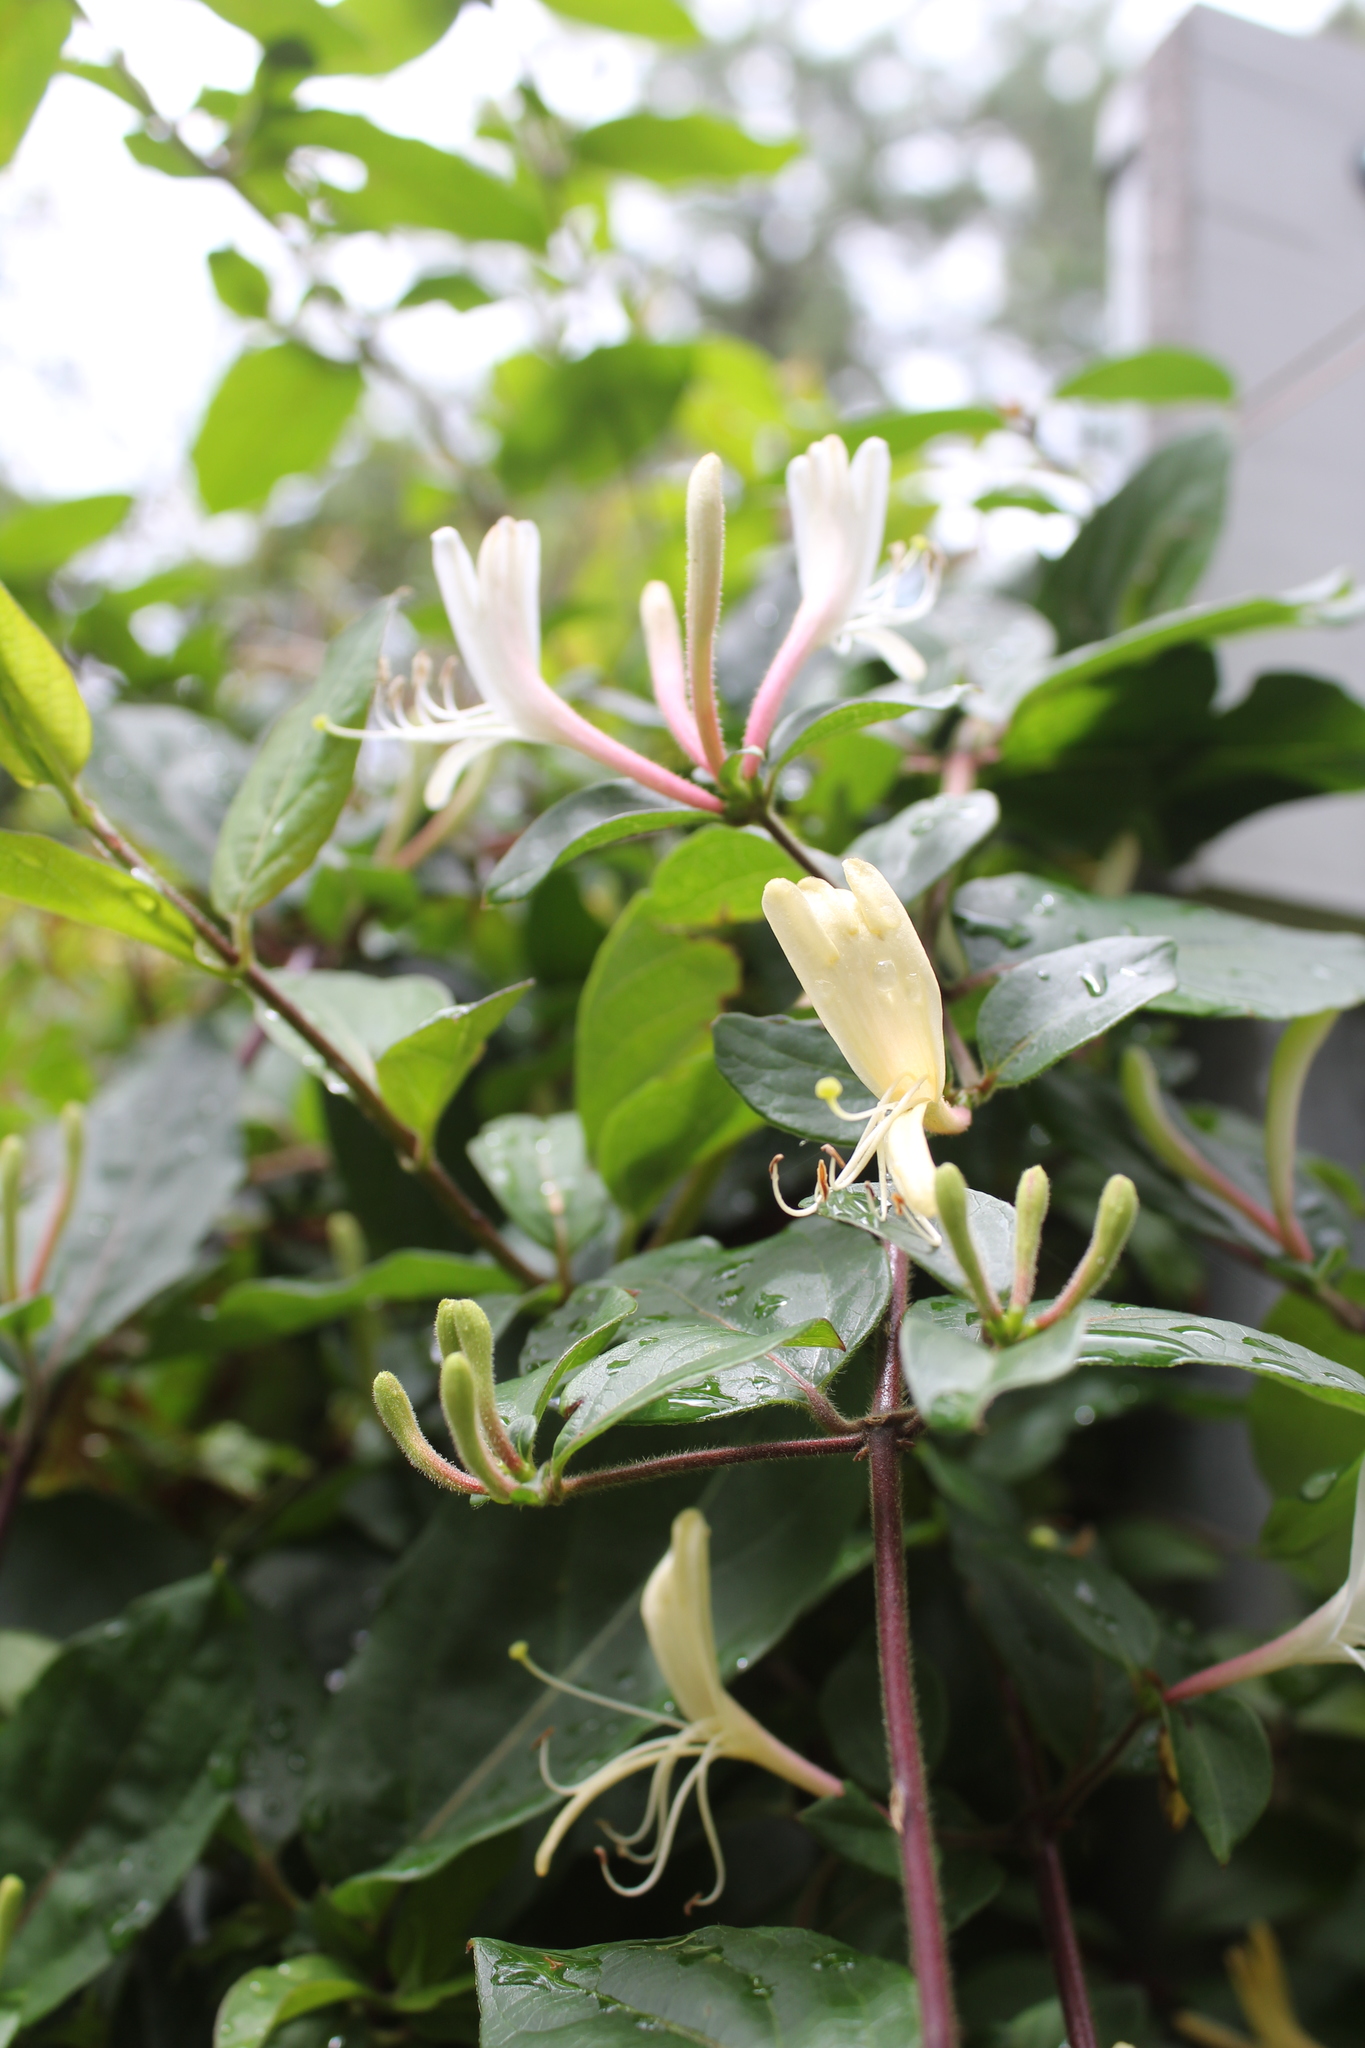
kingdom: Plantae
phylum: Tracheophyta
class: Magnoliopsida
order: Dipsacales
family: Caprifoliaceae
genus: Lonicera
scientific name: Lonicera japonica
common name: Japanese honeysuckle
